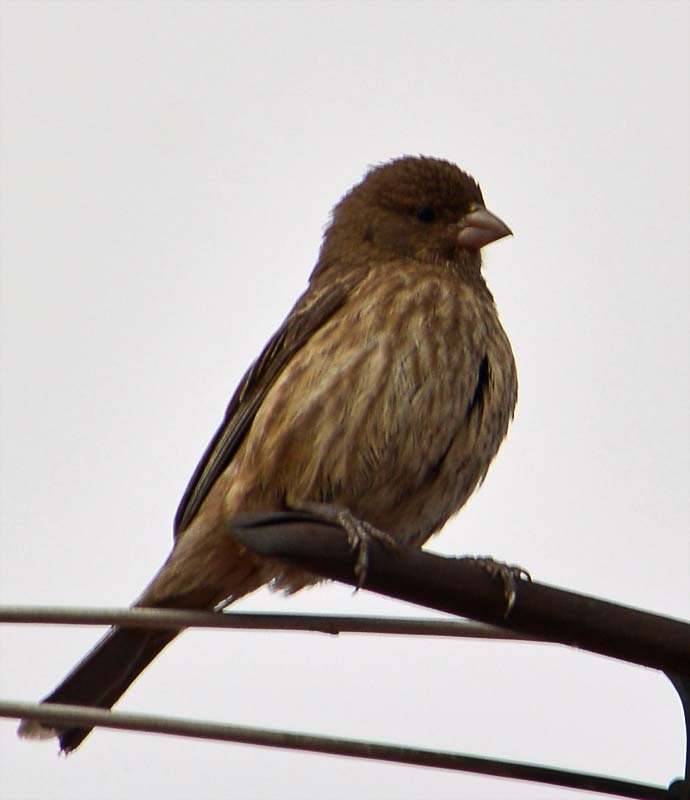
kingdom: Animalia
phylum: Chordata
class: Aves
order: Passeriformes
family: Fringillidae
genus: Haemorhous
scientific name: Haemorhous mexicanus
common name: House finch
